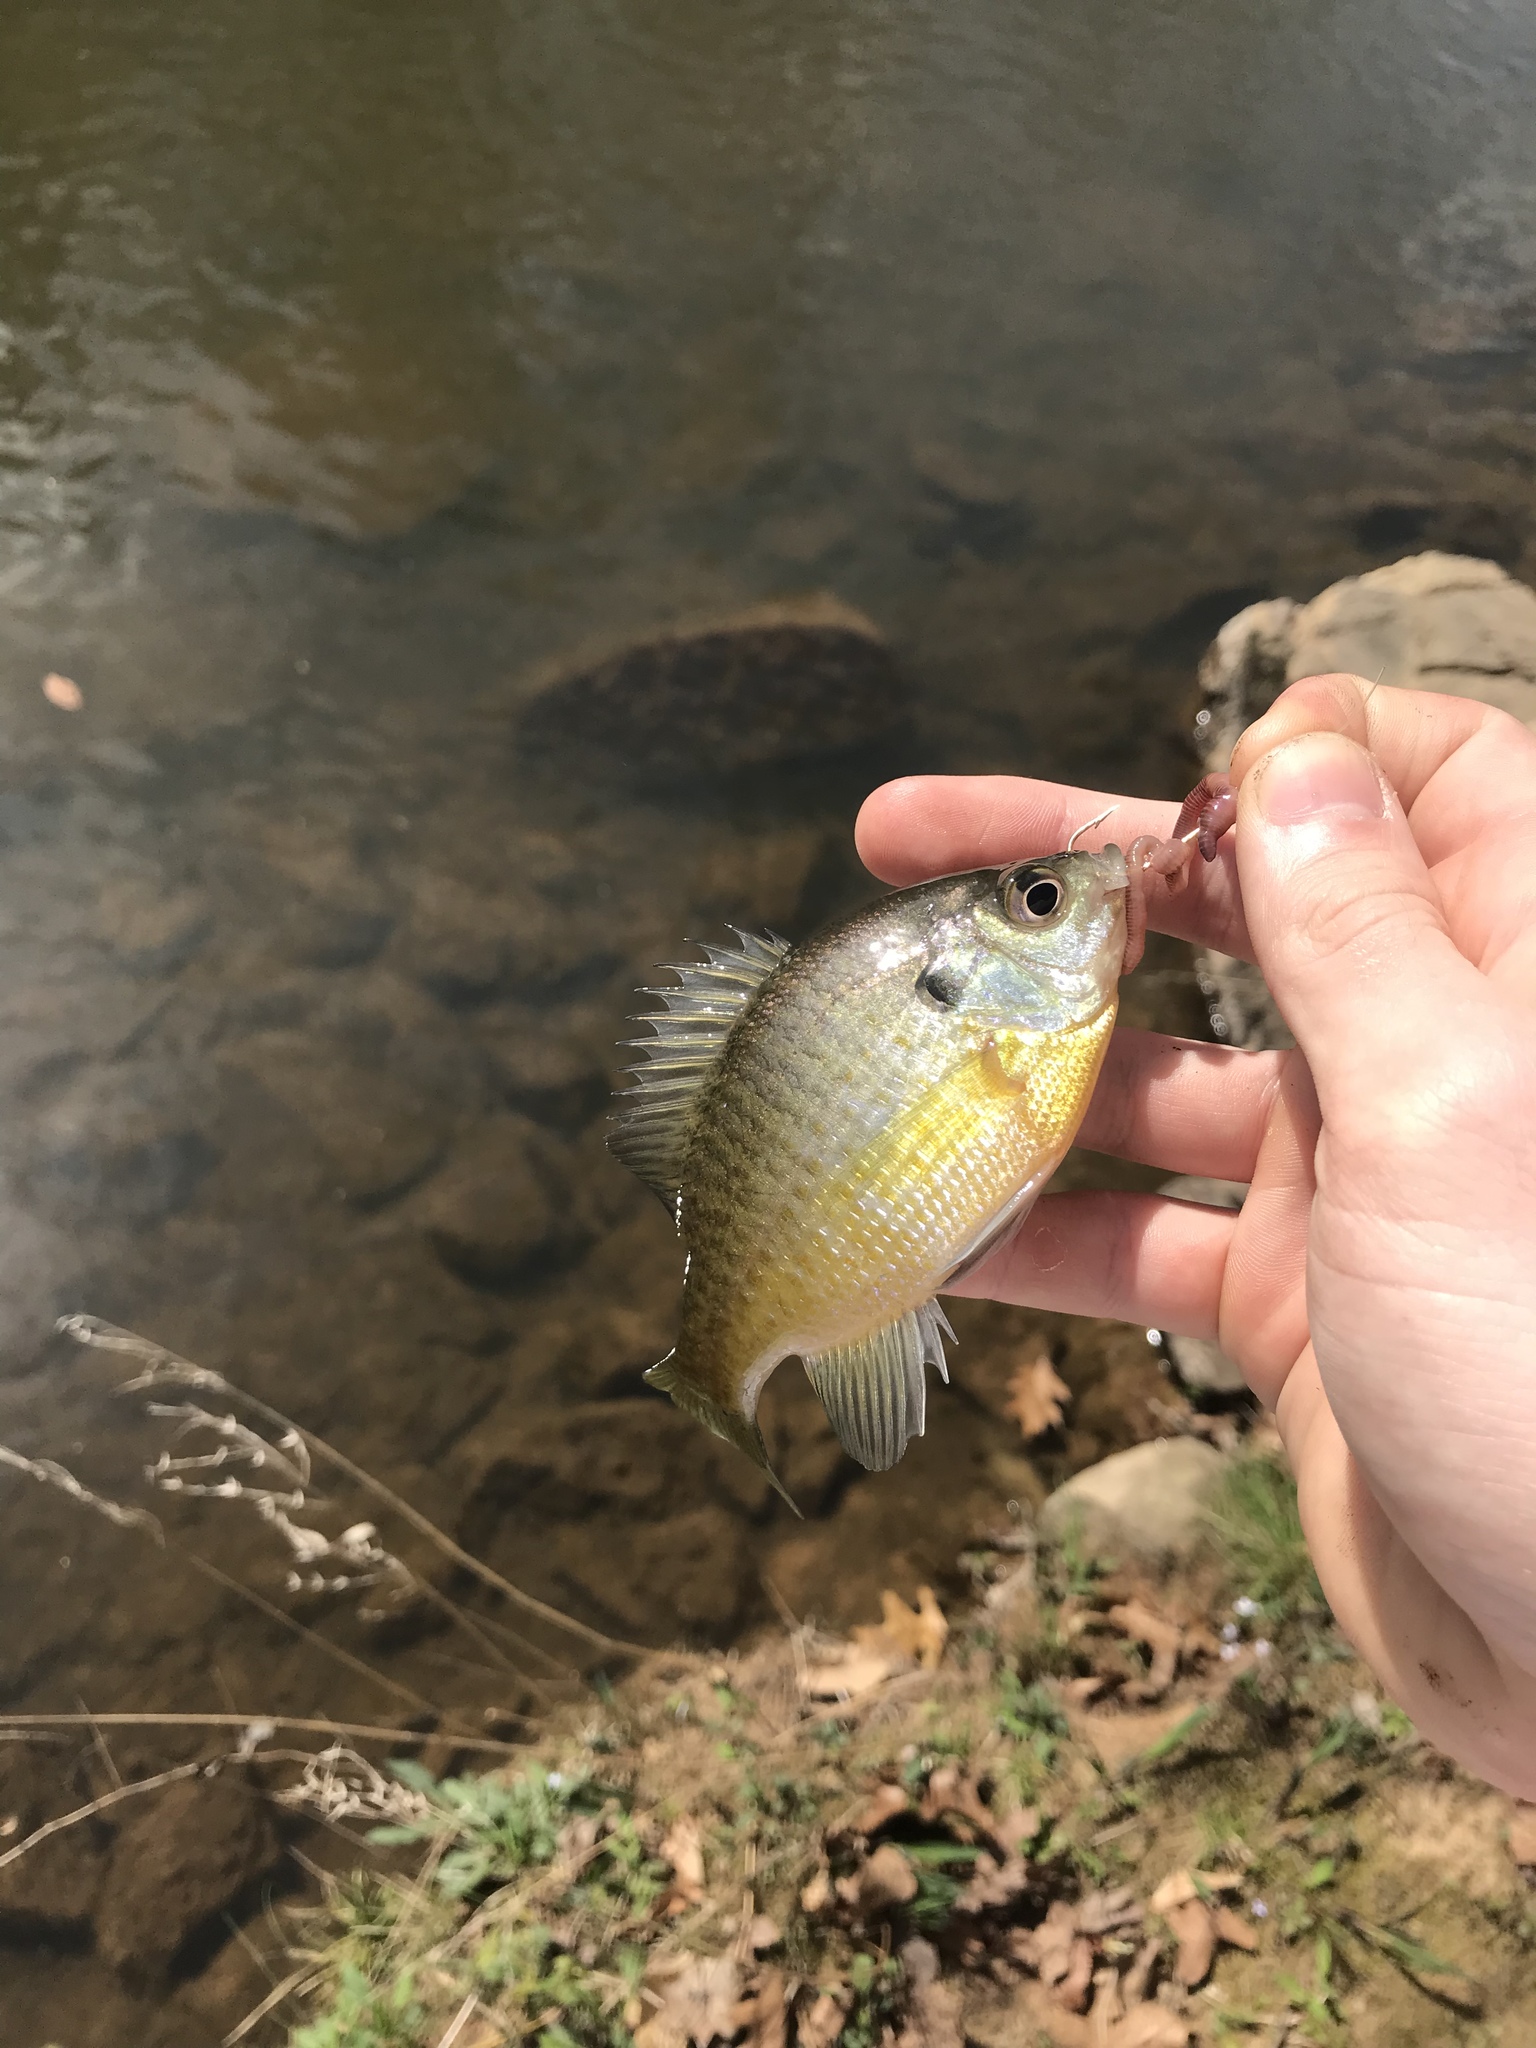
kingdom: Animalia
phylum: Chordata
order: Perciformes
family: Centrarchidae
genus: Lepomis
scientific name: Lepomis macrochirus
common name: Bluegill
